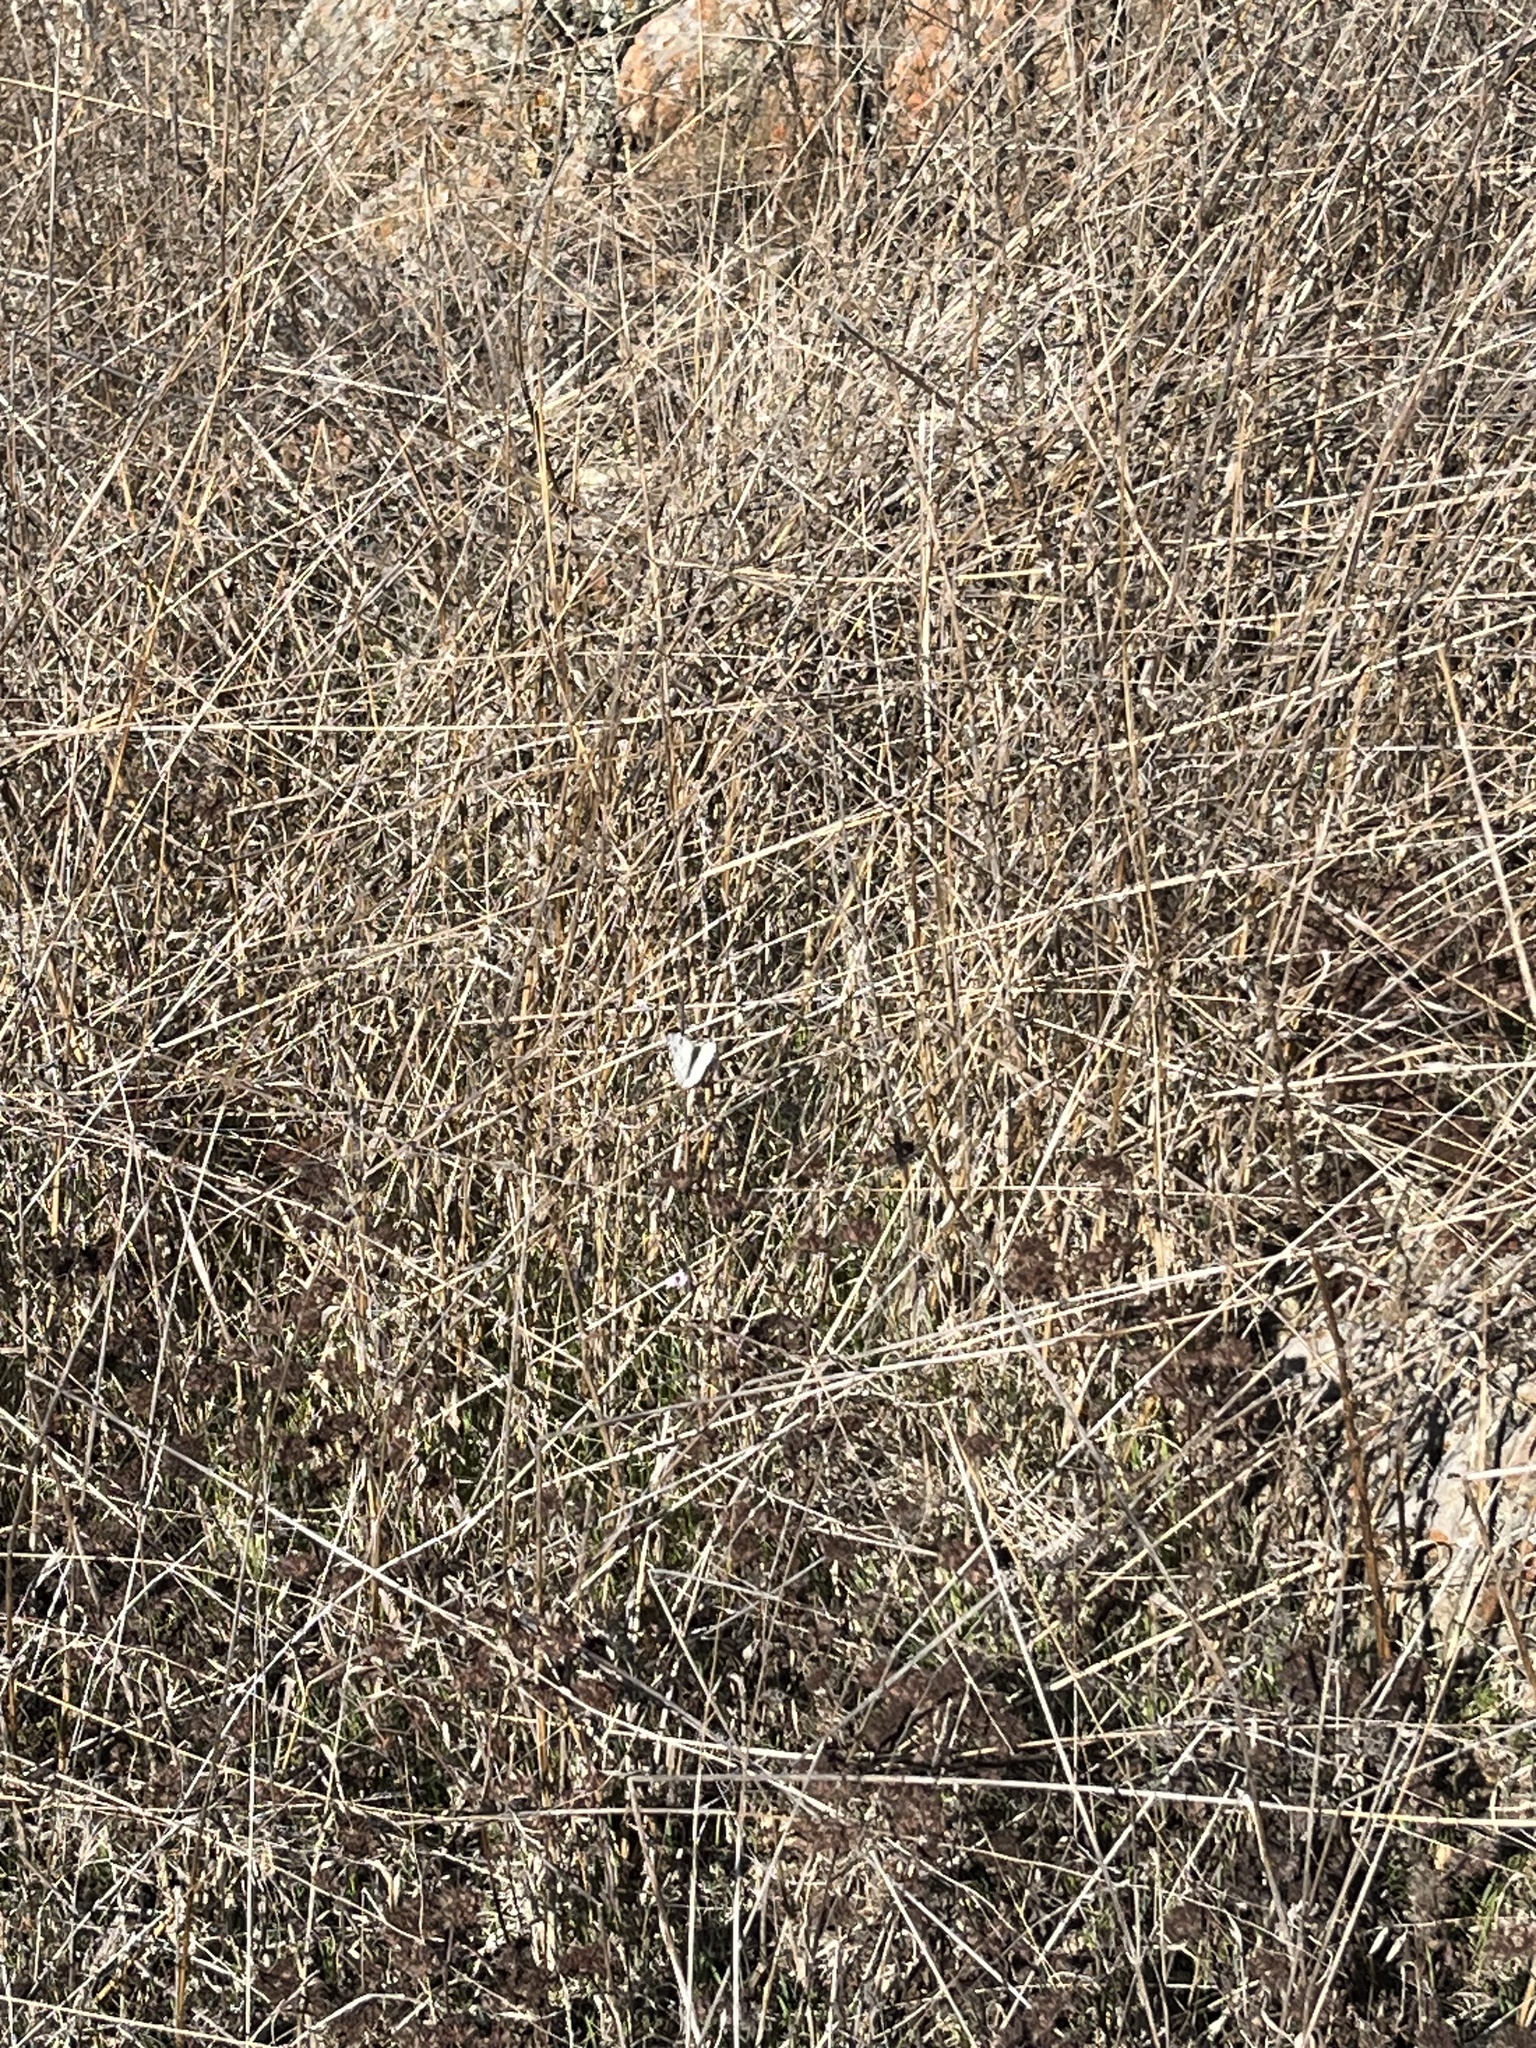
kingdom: Animalia
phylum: Arthropoda
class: Insecta
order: Lepidoptera
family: Pieridae
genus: Pontia
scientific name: Pontia protodice
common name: Checkered white
